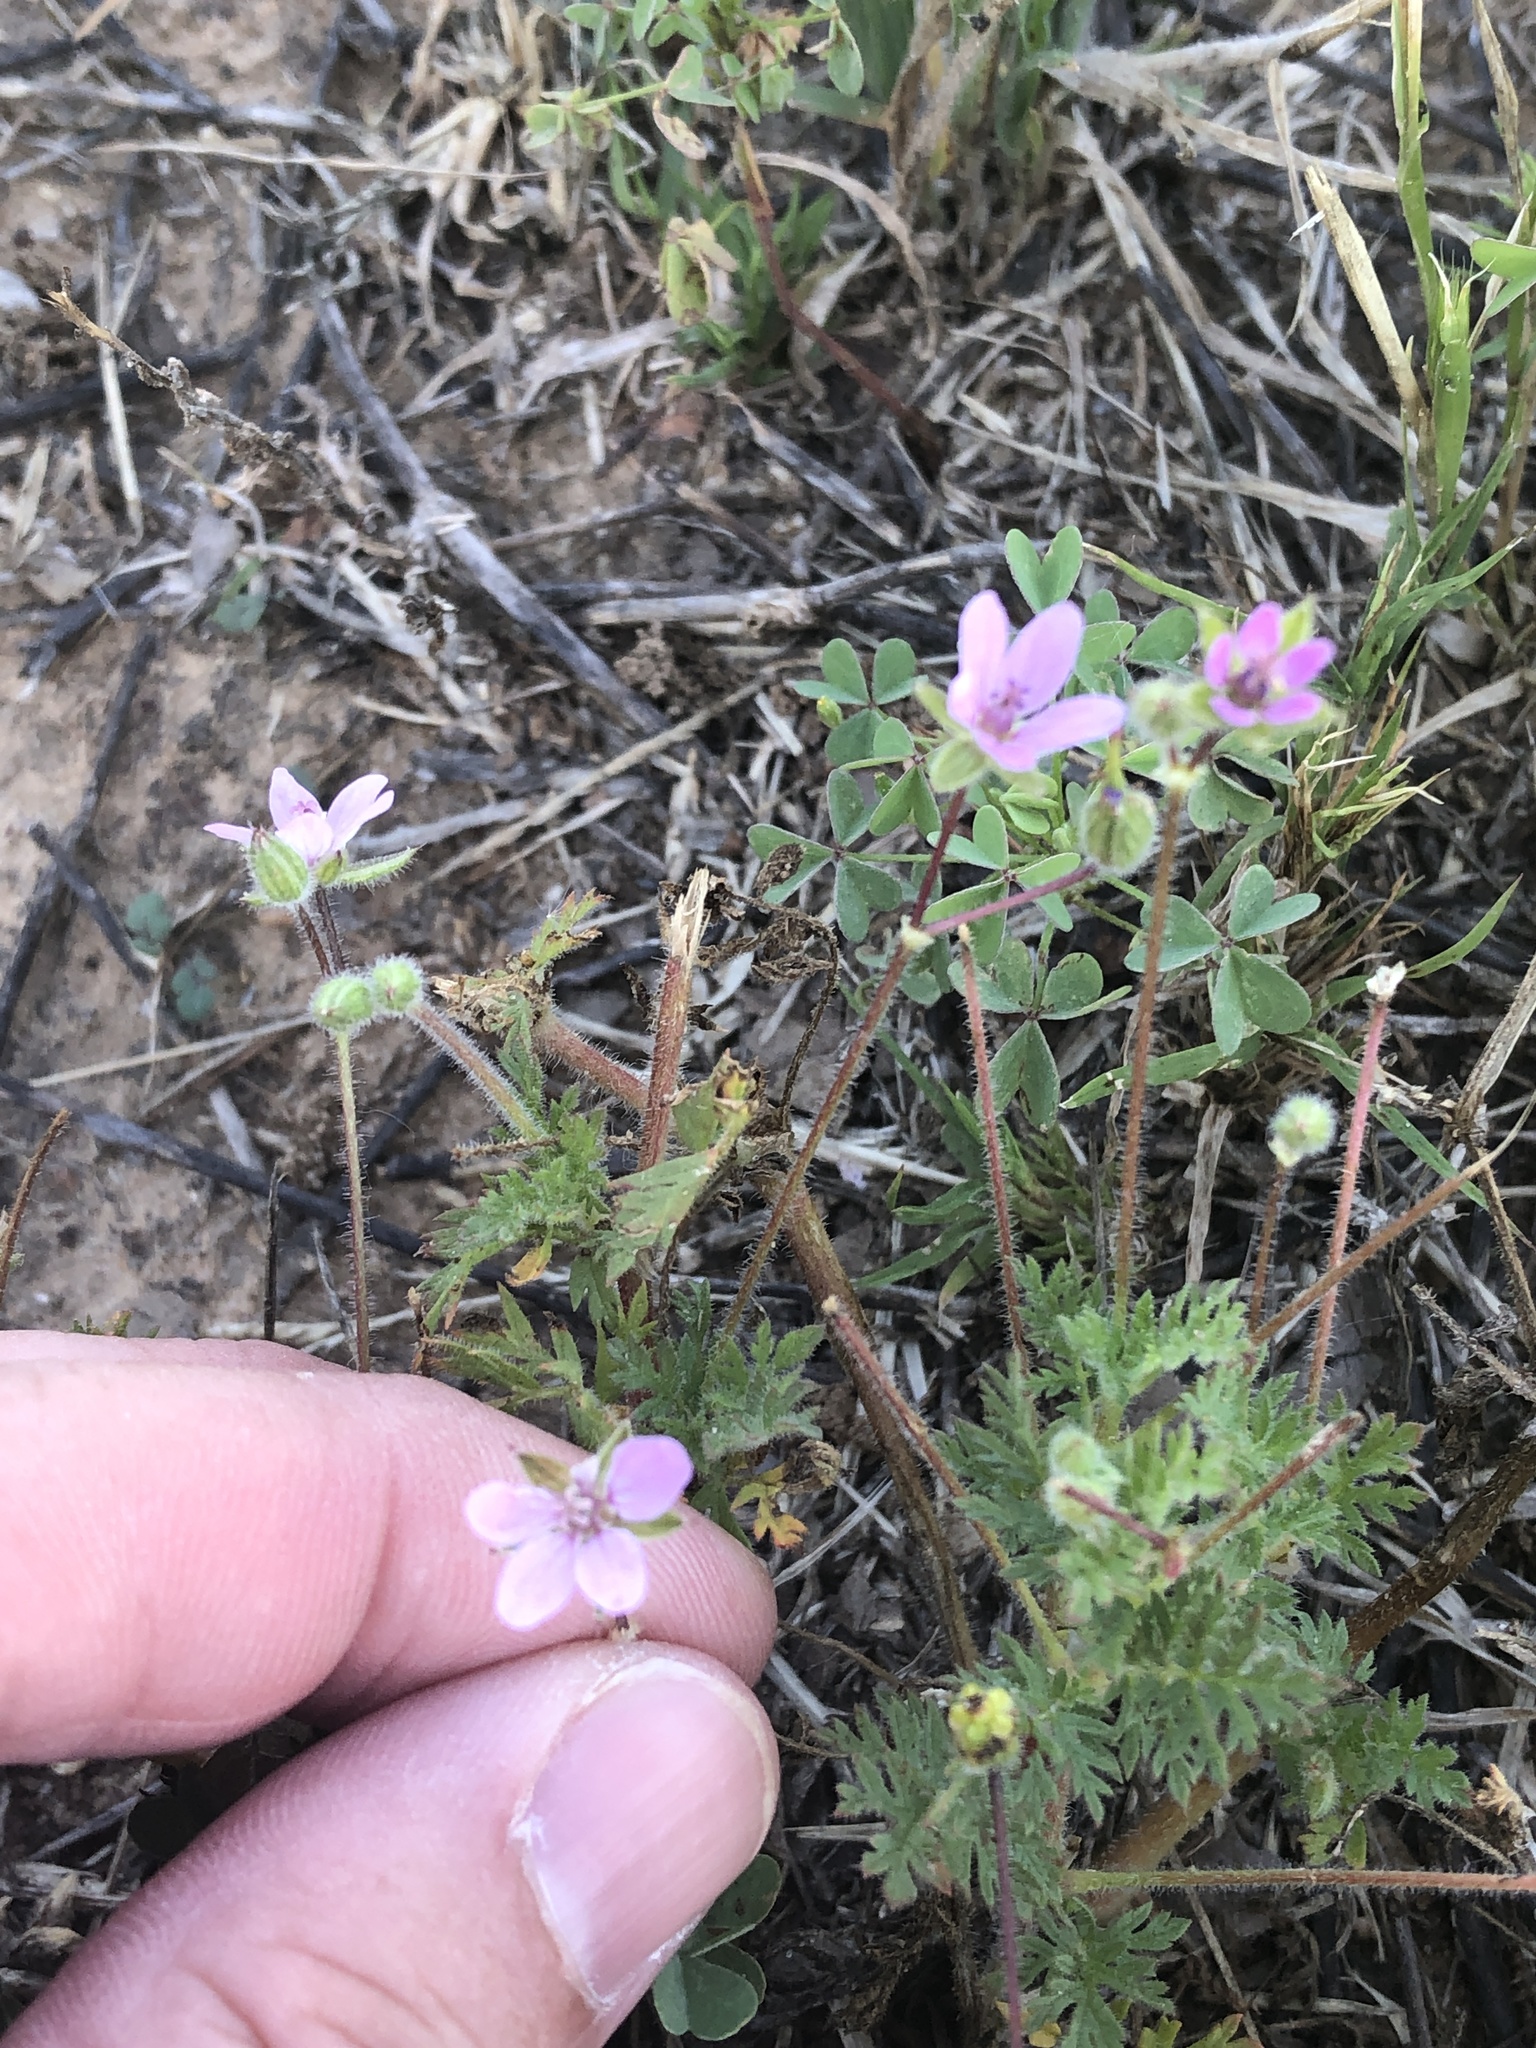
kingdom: Plantae
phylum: Tracheophyta
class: Magnoliopsida
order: Geraniales
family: Geraniaceae
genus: Erodium
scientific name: Erodium cicutarium
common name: Common stork's-bill
